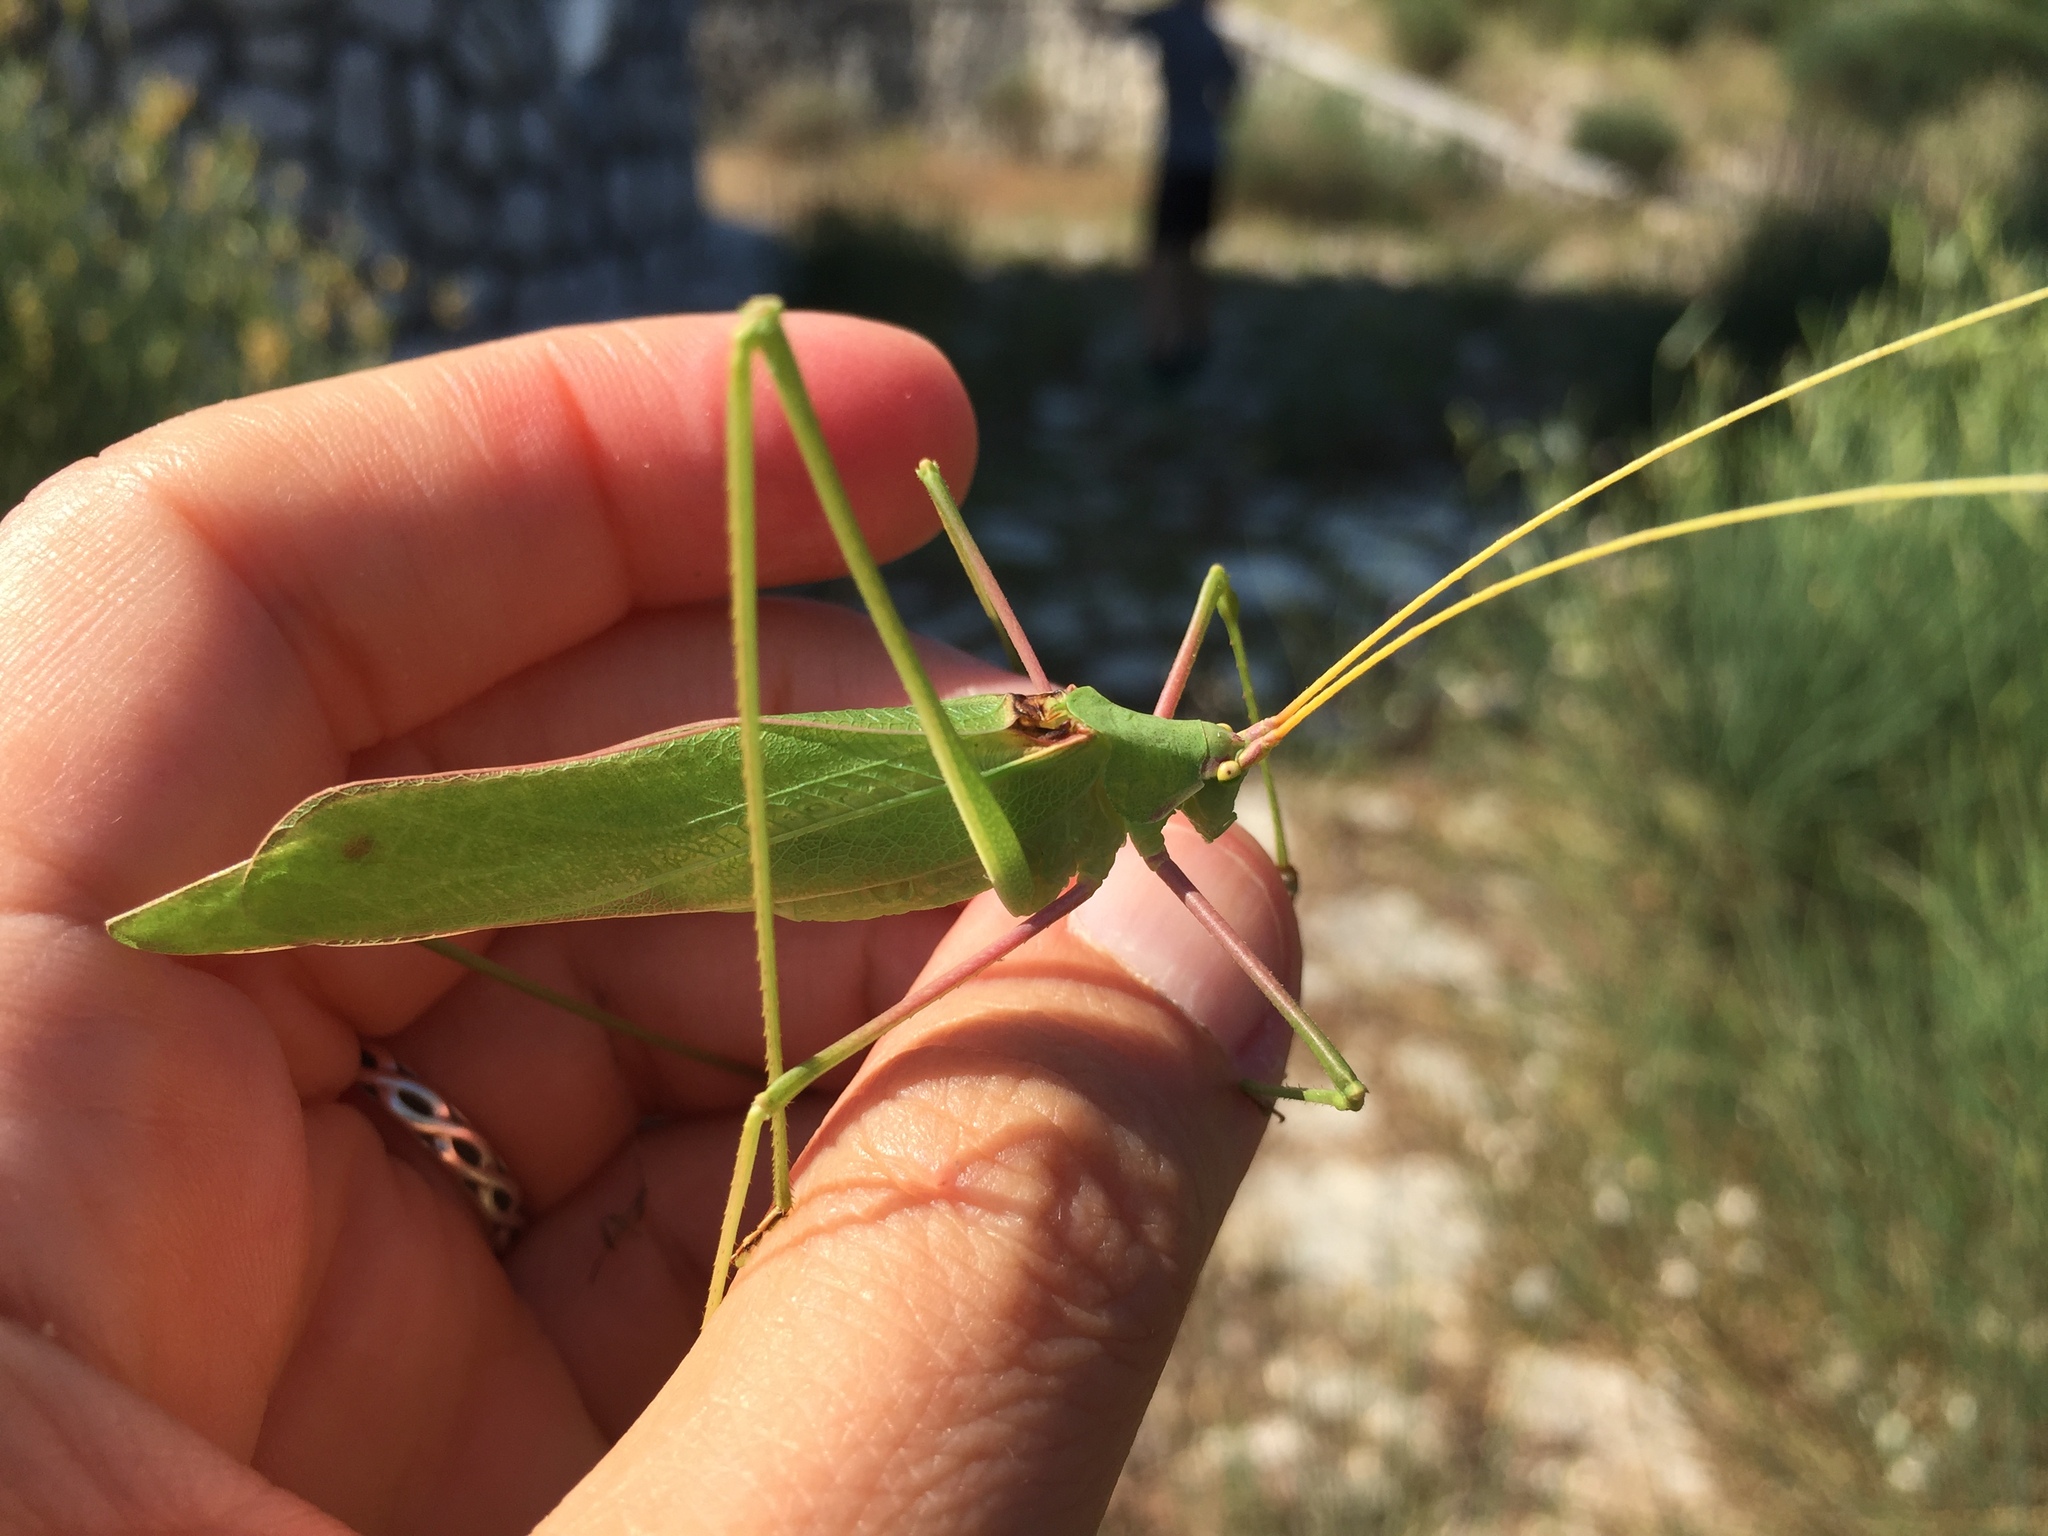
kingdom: Animalia
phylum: Arthropoda
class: Insecta
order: Orthoptera
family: Tettigoniidae
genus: Acrometopa
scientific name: Acrometopa macropoda
